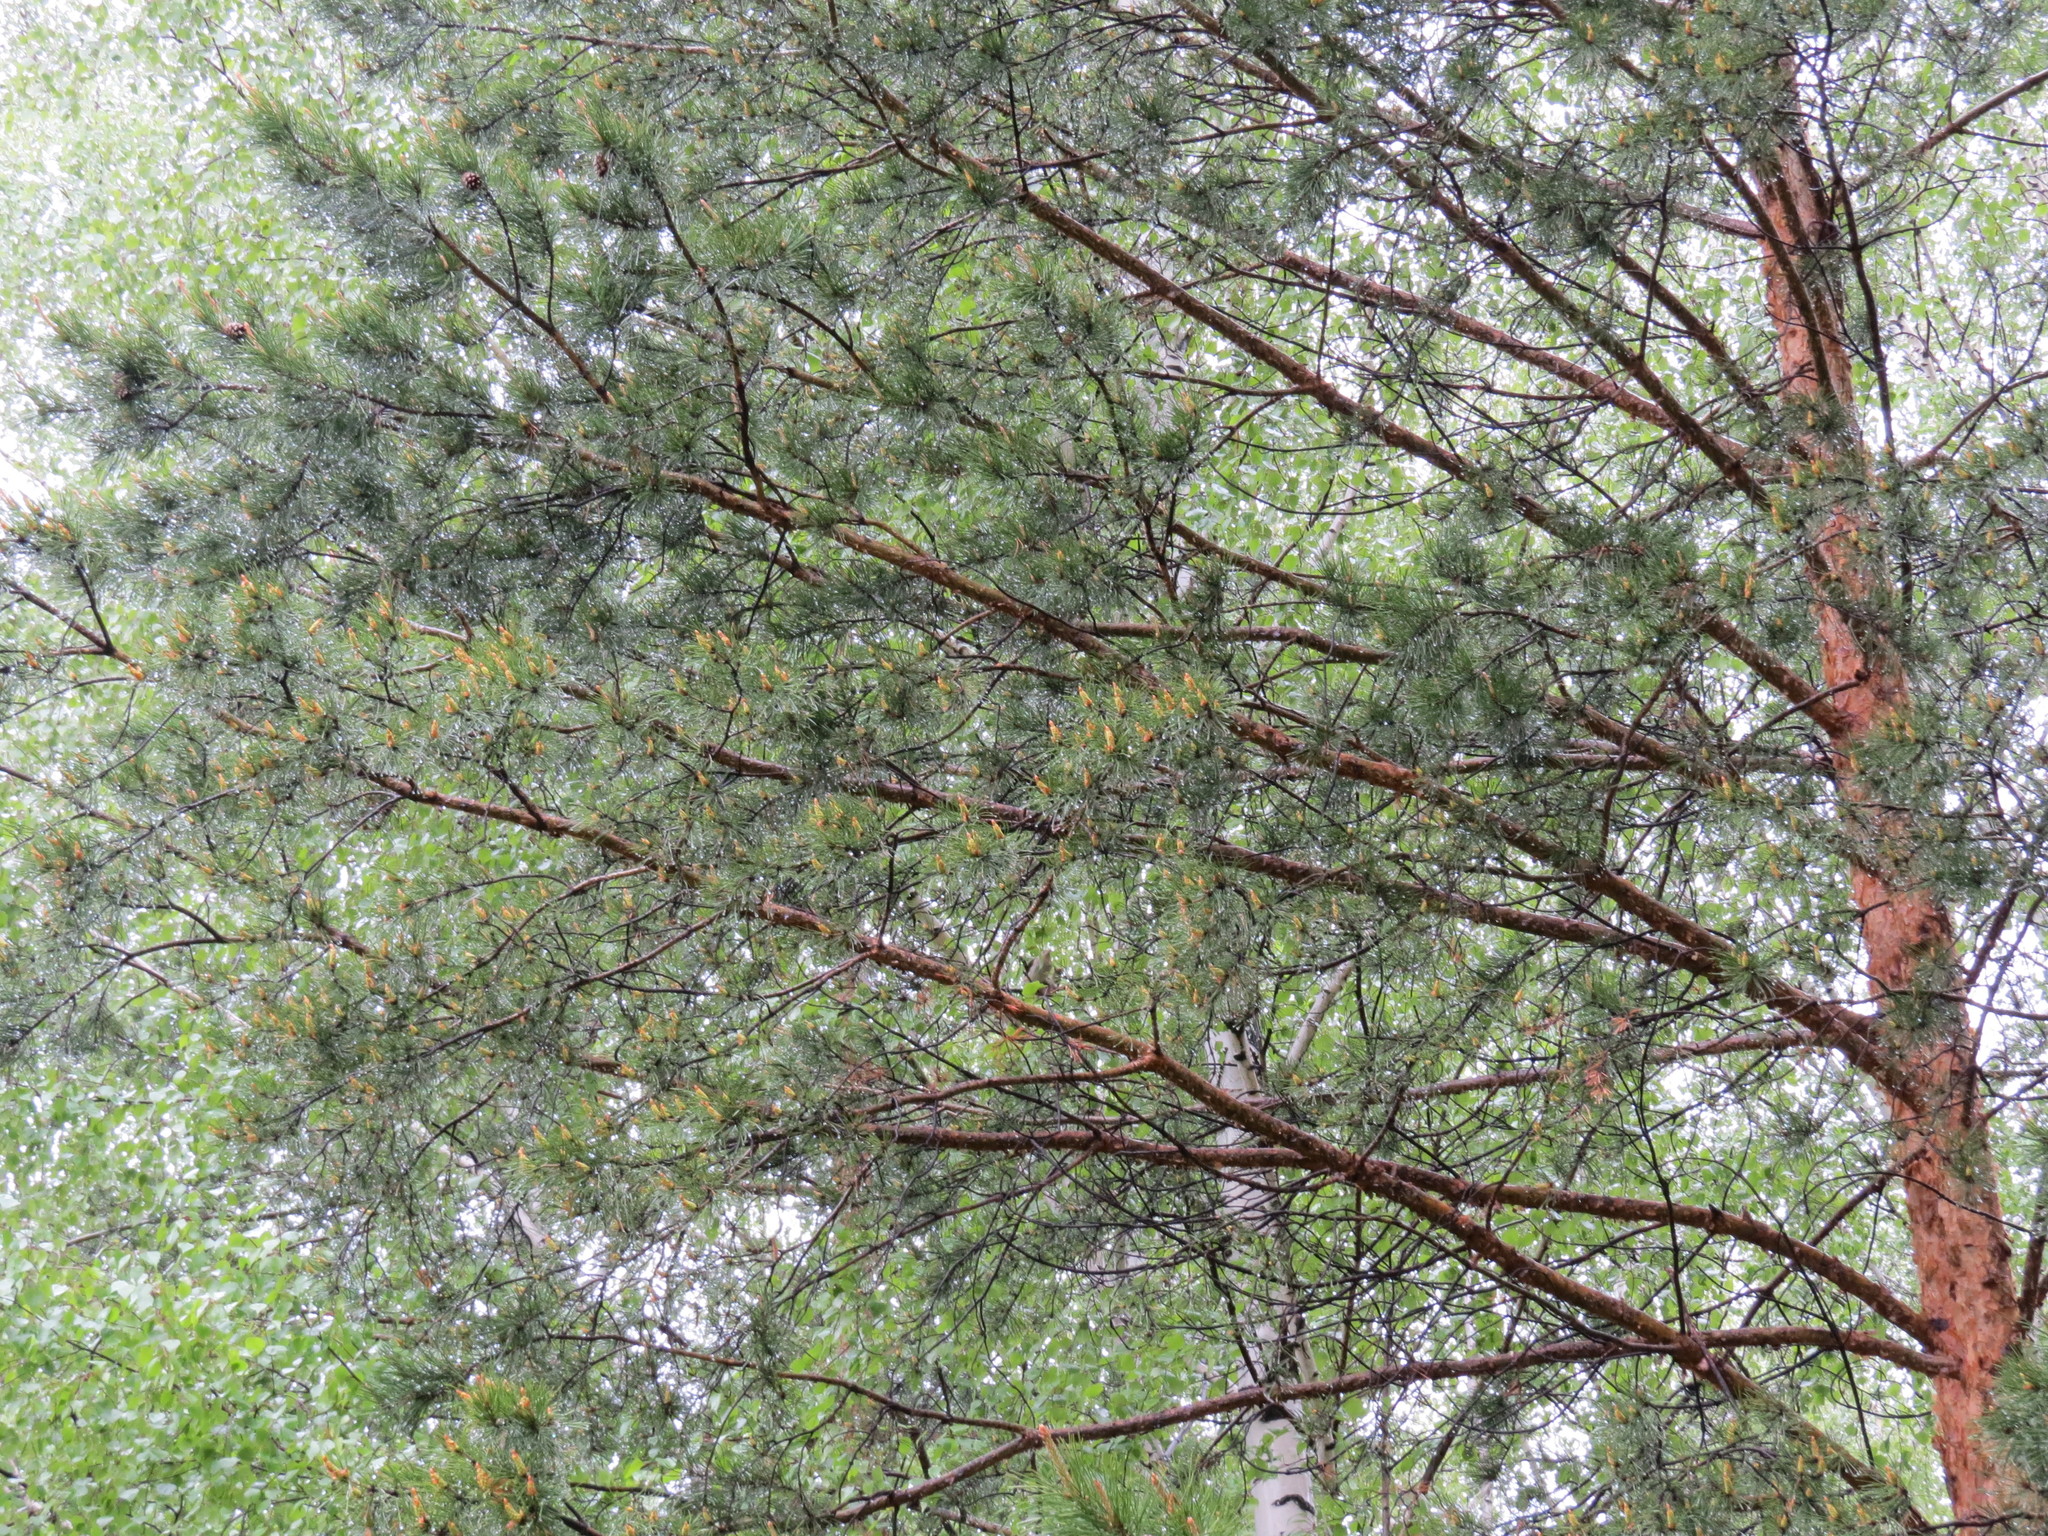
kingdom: Animalia
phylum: Chordata
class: Aves
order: Piciformes
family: Picidae
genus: Jynx
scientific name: Jynx torquilla
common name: Eurasian wryneck
